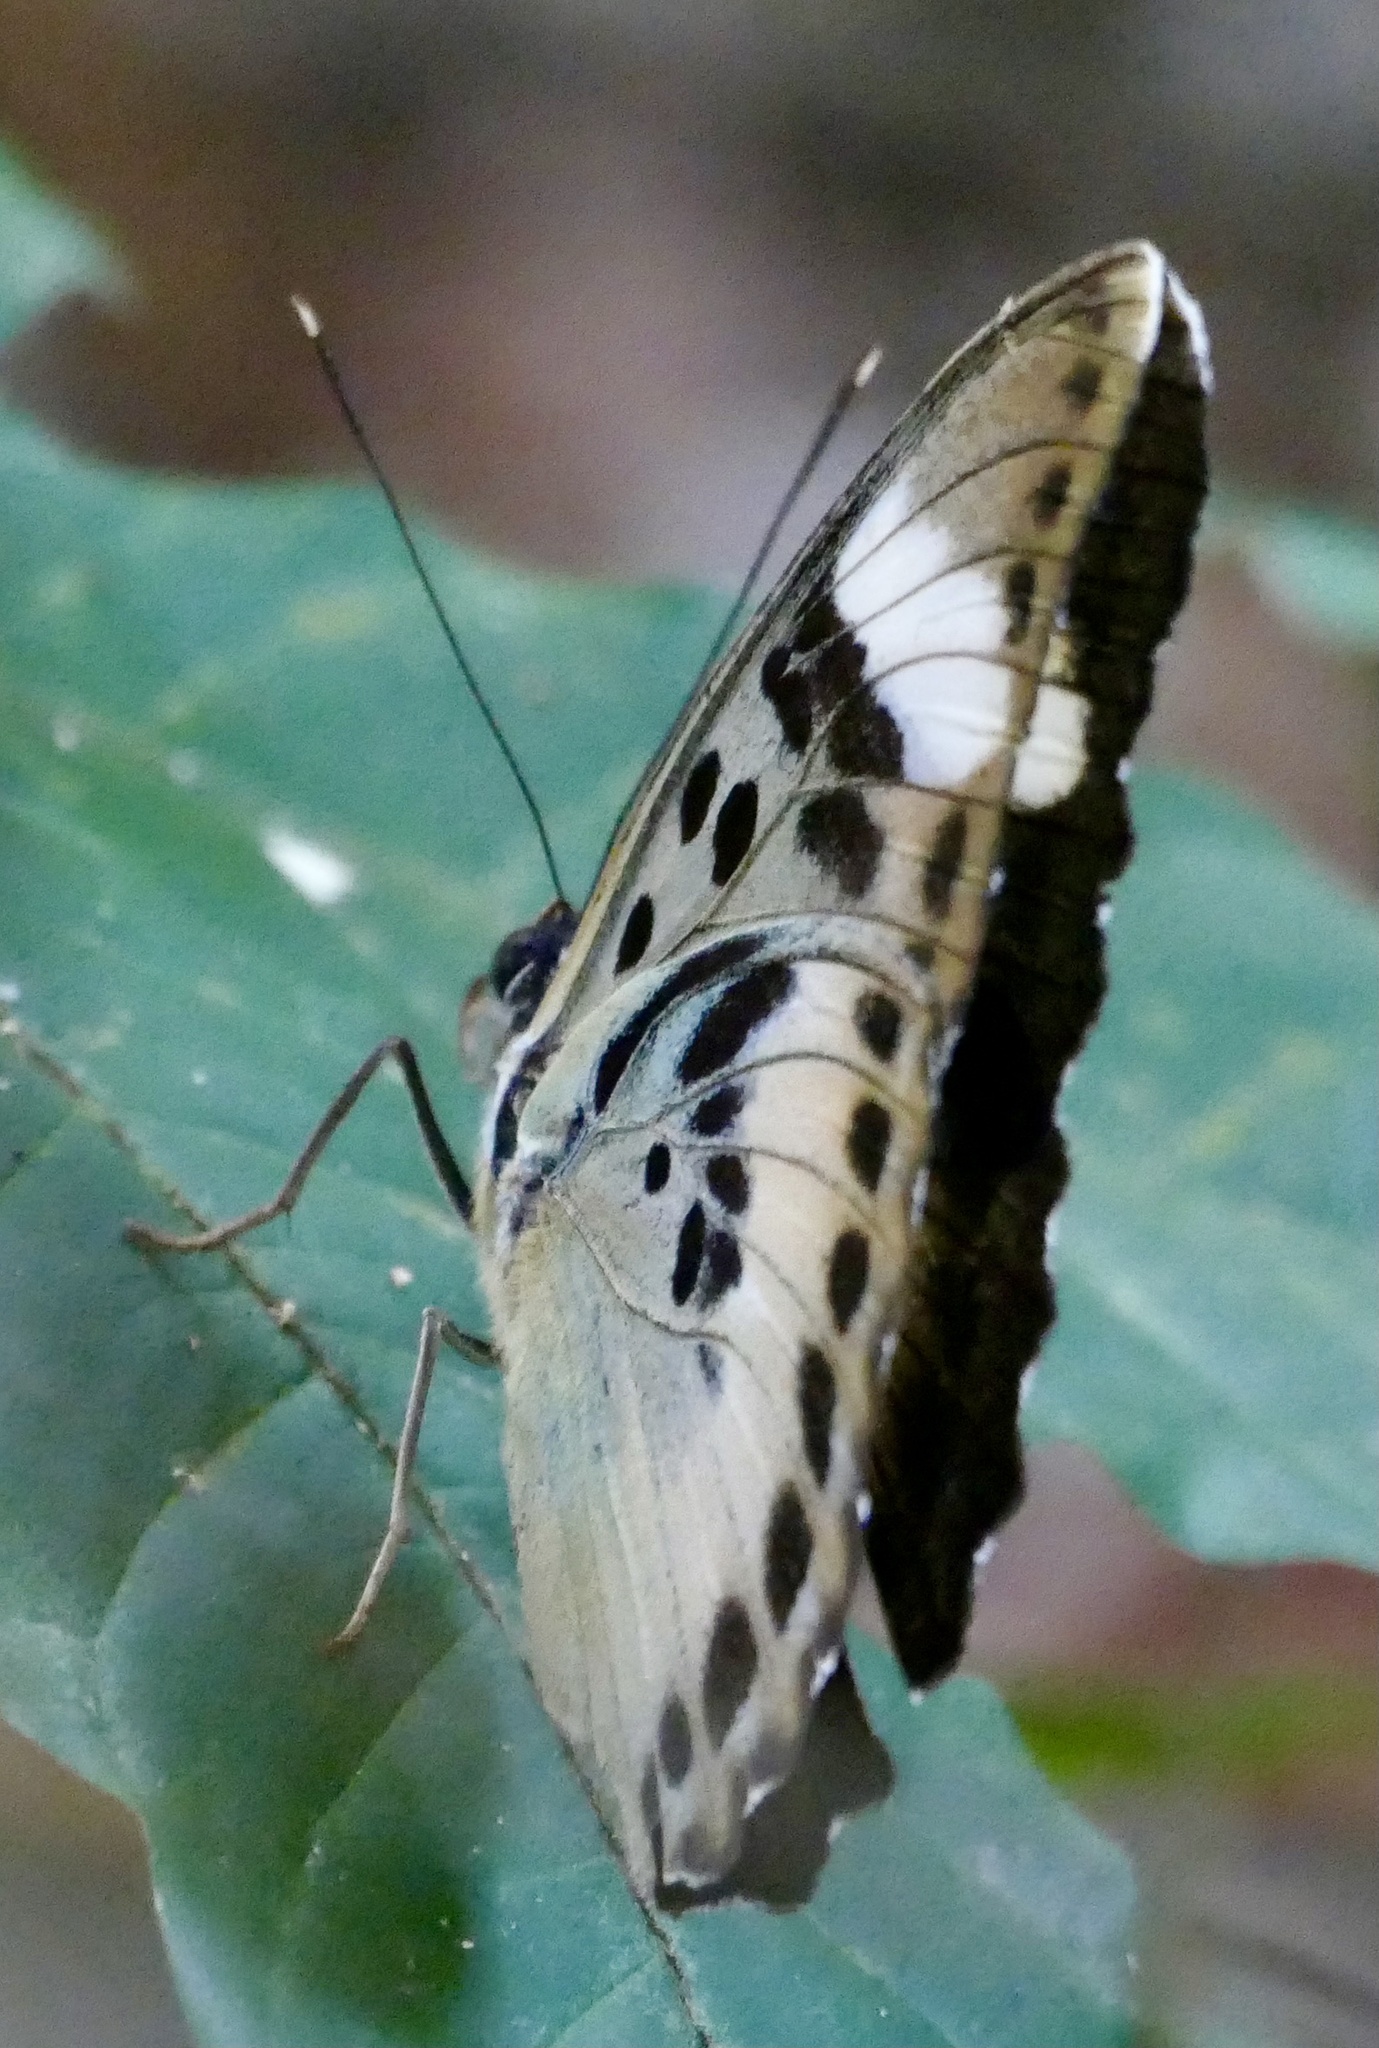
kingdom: Animalia
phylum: Arthropoda
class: Insecta
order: Lepidoptera
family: Nymphalidae
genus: Euphaedra
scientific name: Euphaedra phaethusa
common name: Common ceres forester
